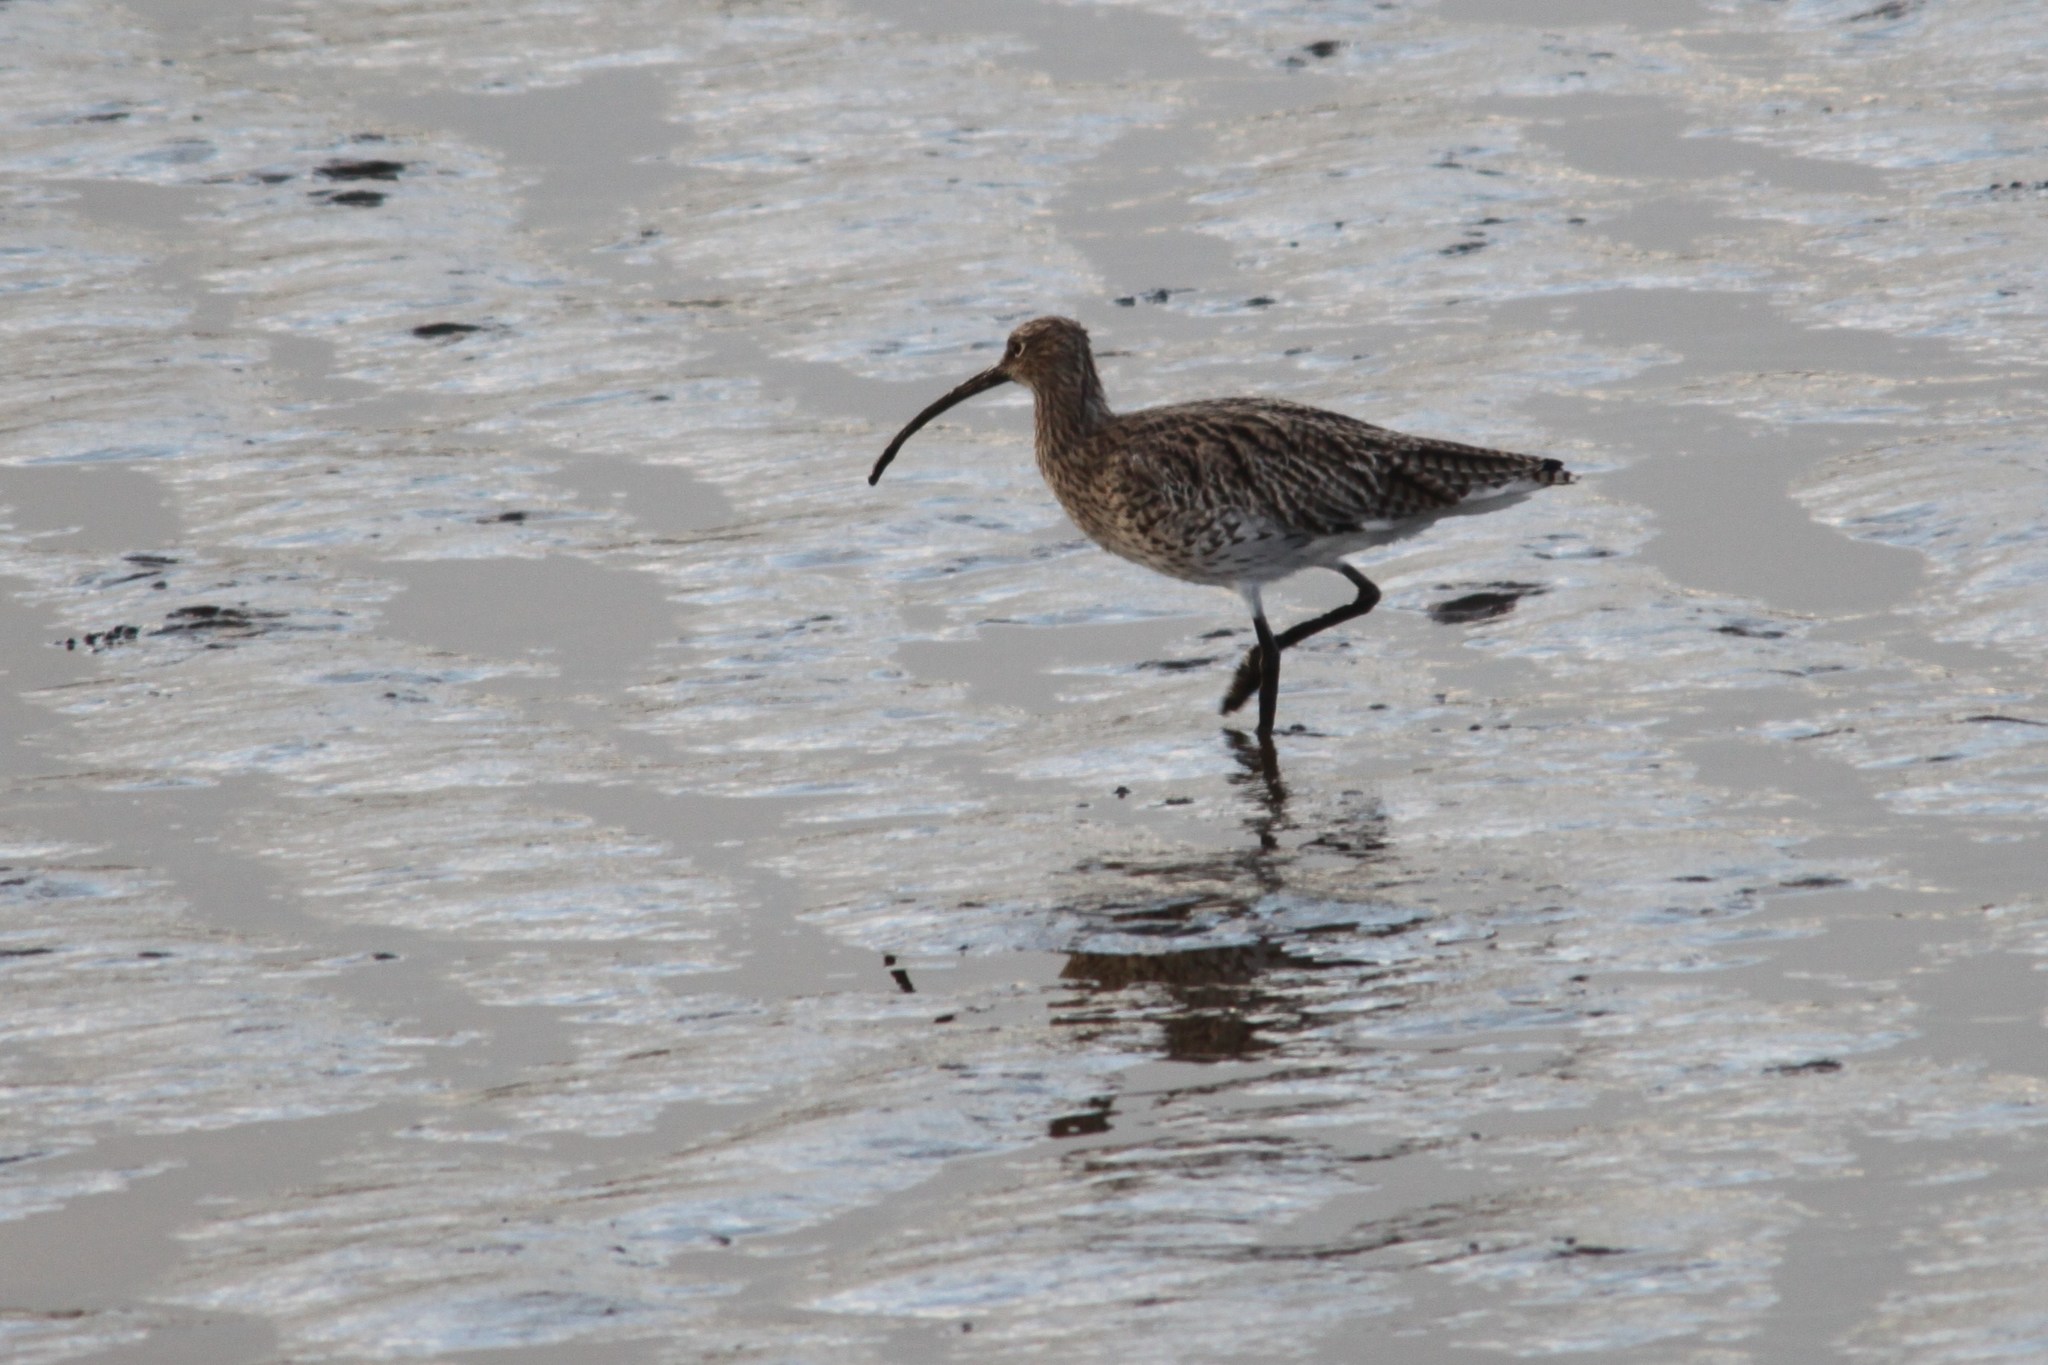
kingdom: Animalia
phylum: Chordata
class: Aves
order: Charadriiformes
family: Scolopacidae
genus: Numenius
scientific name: Numenius arquata
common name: Eurasian curlew
